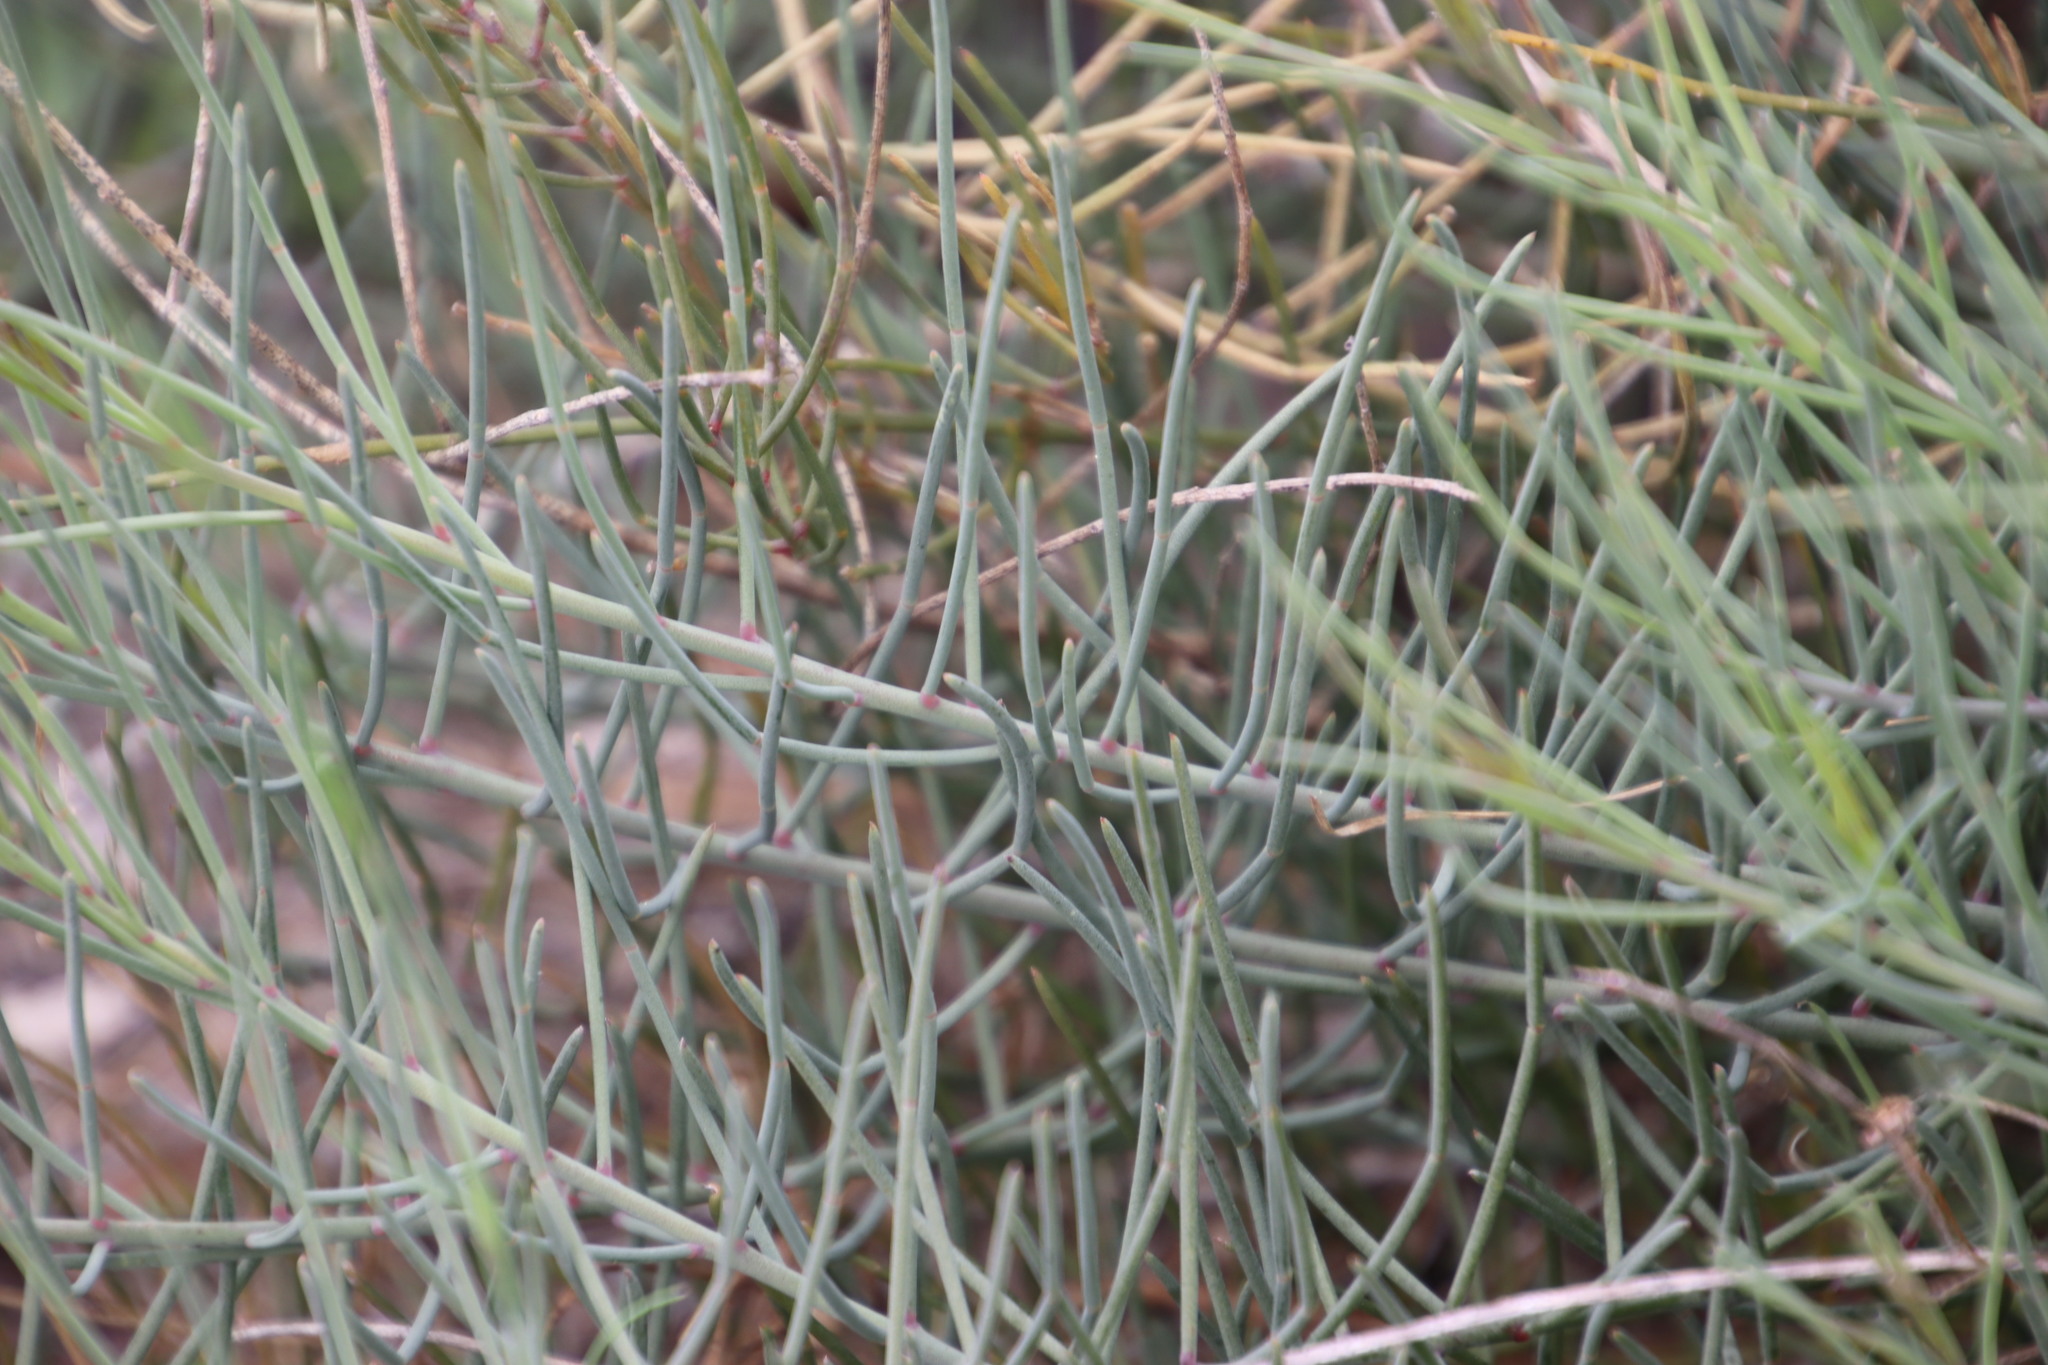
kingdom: Plantae
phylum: Tracheophyta
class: Magnoliopsida
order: Fabales
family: Fabaceae
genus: Lebeckia
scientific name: Lebeckia contaminata
